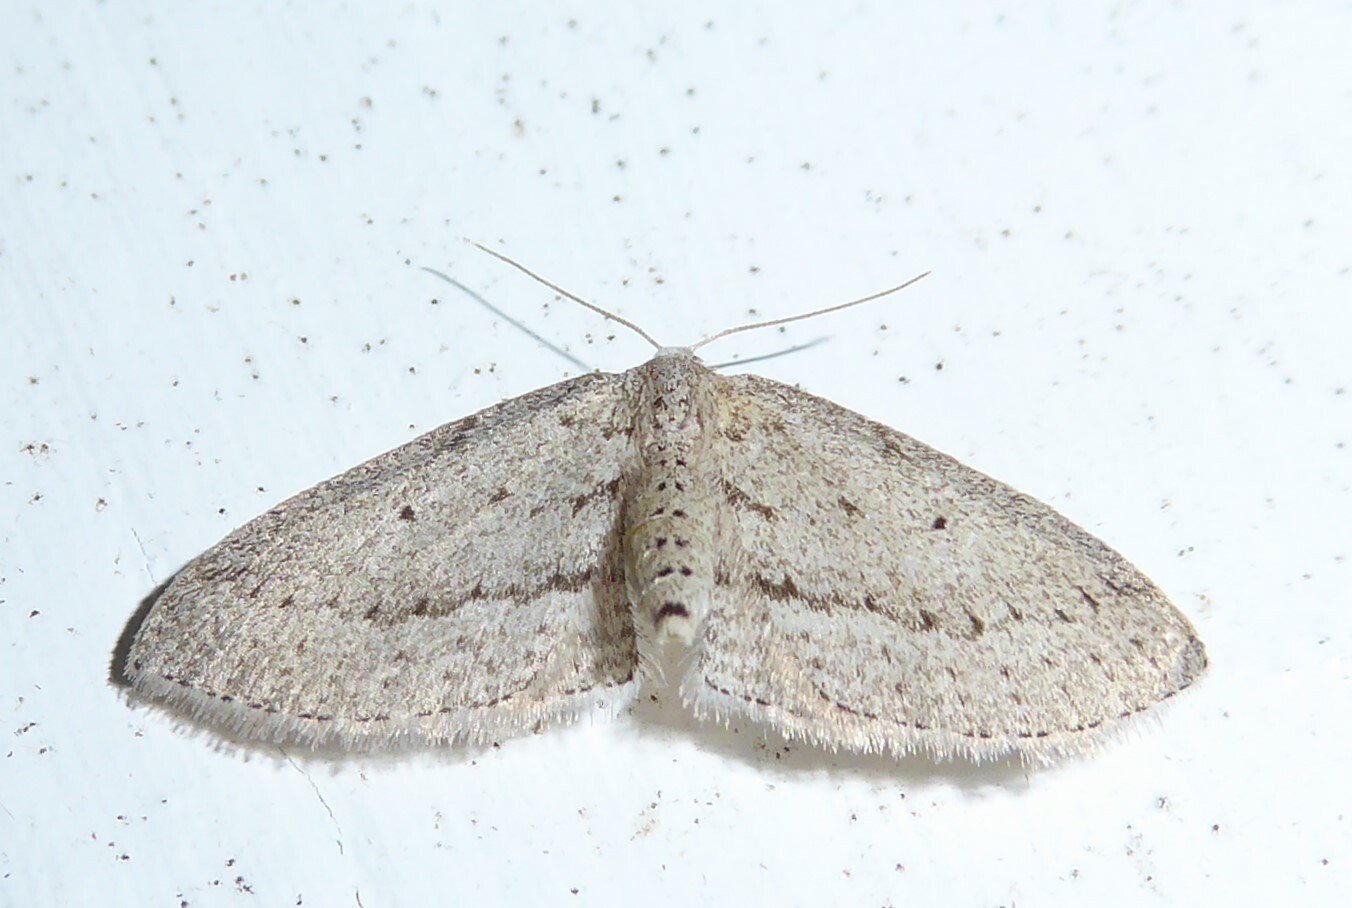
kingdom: Animalia
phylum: Arthropoda
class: Insecta
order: Lepidoptera
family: Geometridae
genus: Poecilasthena
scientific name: Poecilasthena schistaria
